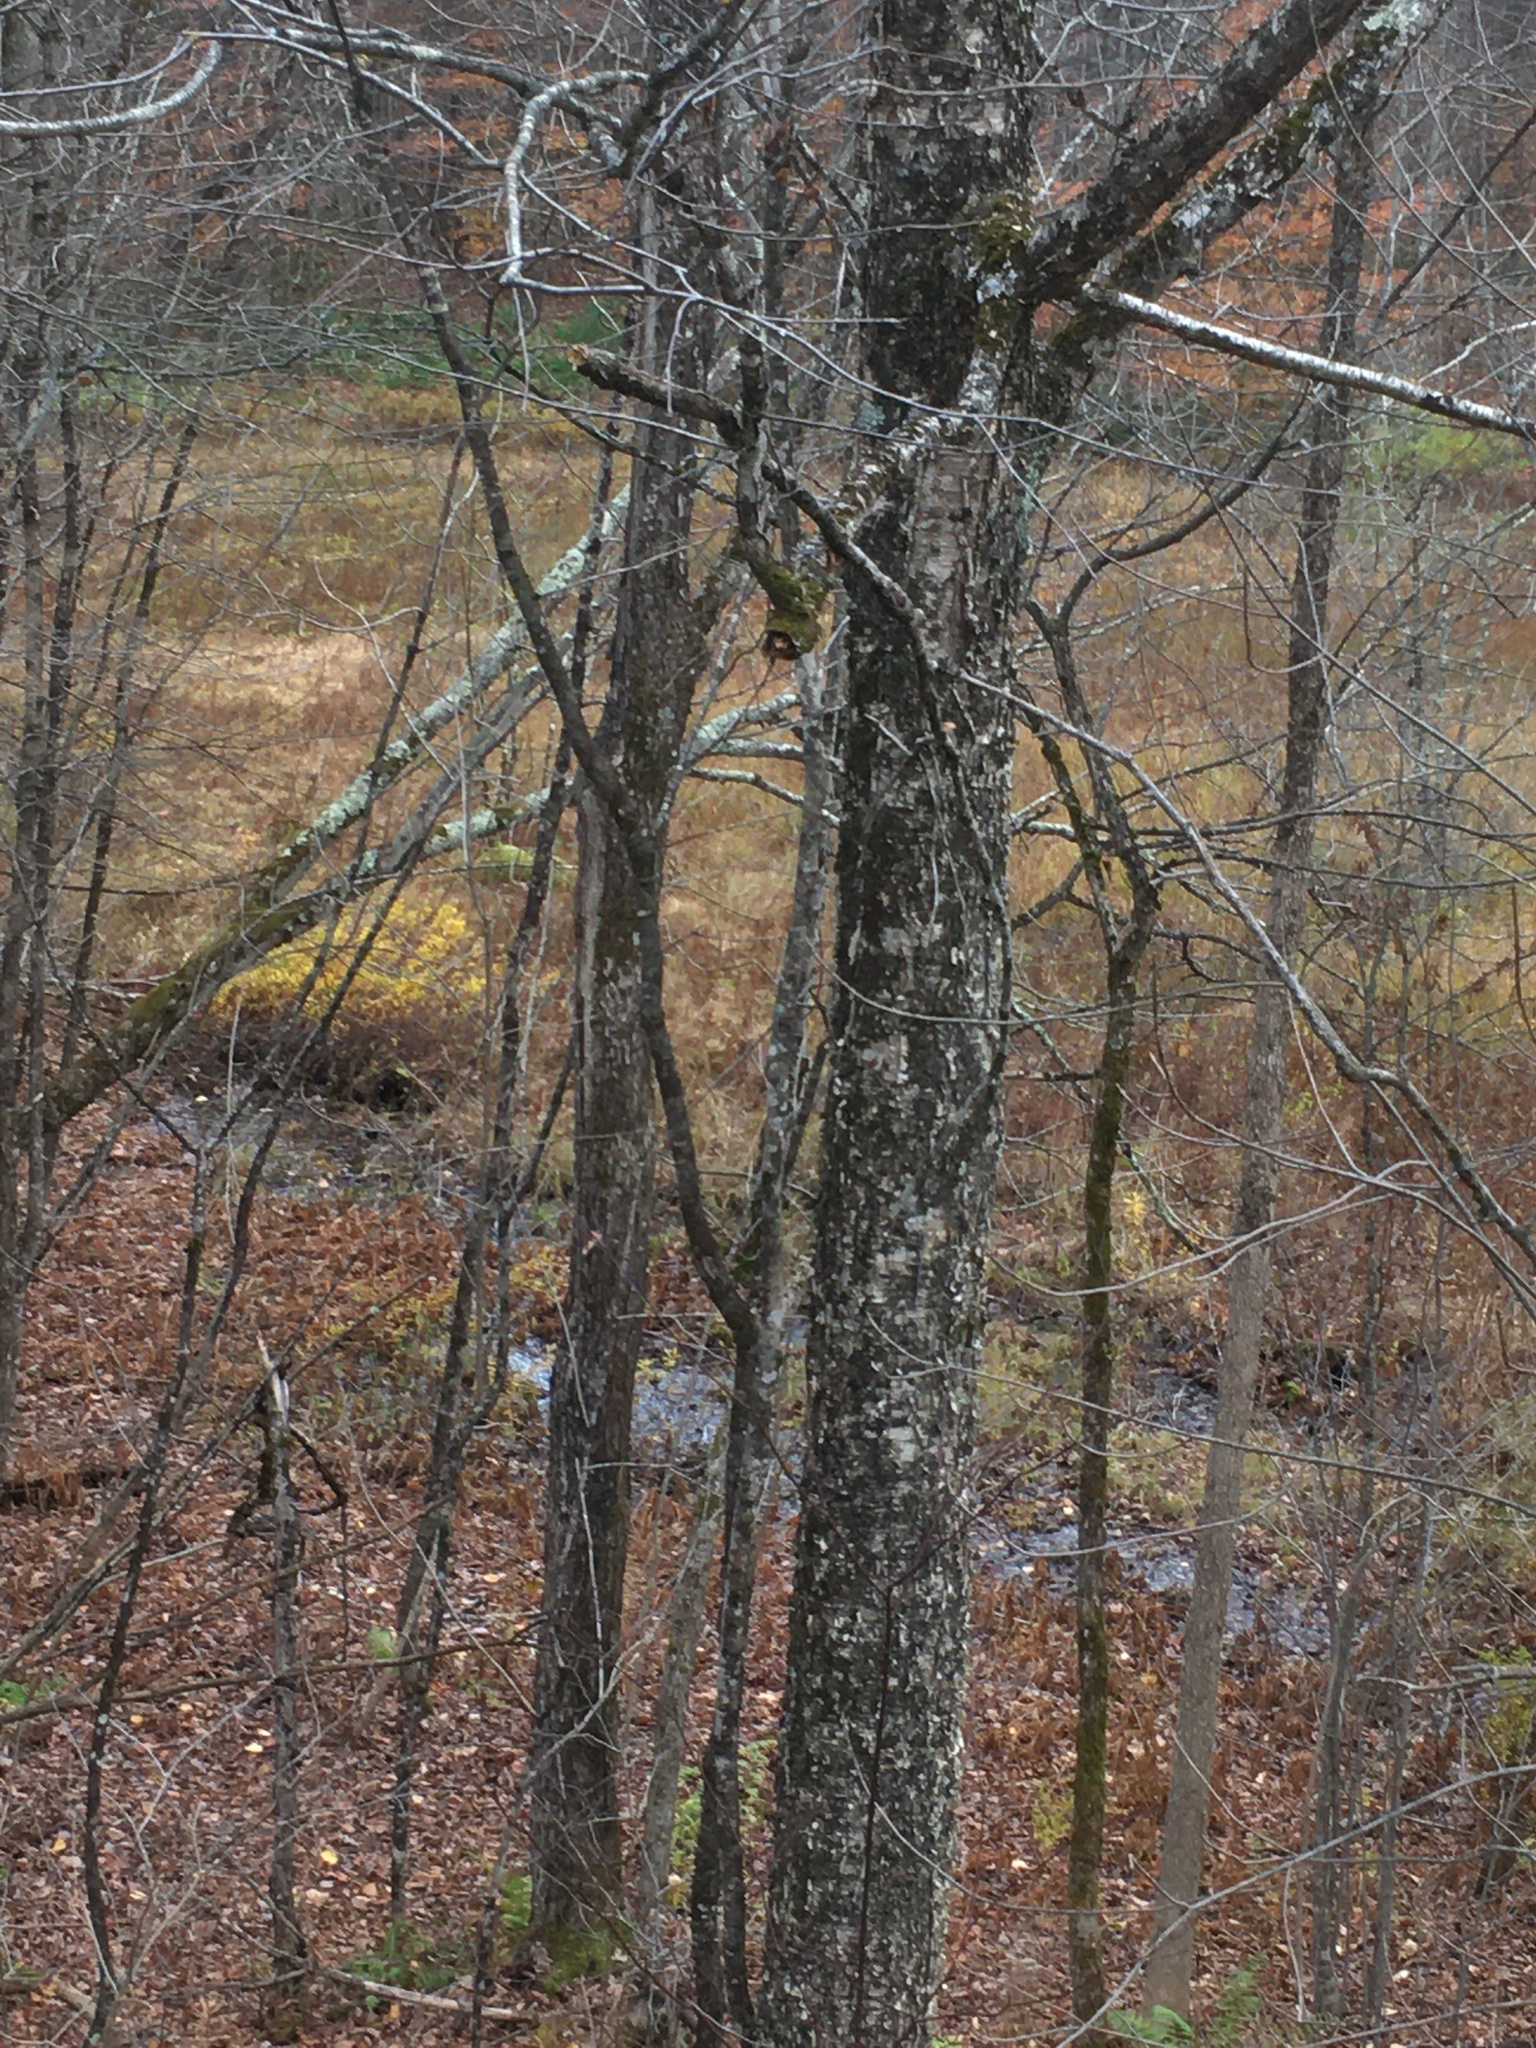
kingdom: Plantae
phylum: Tracheophyta
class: Magnoliopsida
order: Fagales
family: Betulaceae
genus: Betula
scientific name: Betula alleghaniensis
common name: Yellow birch
